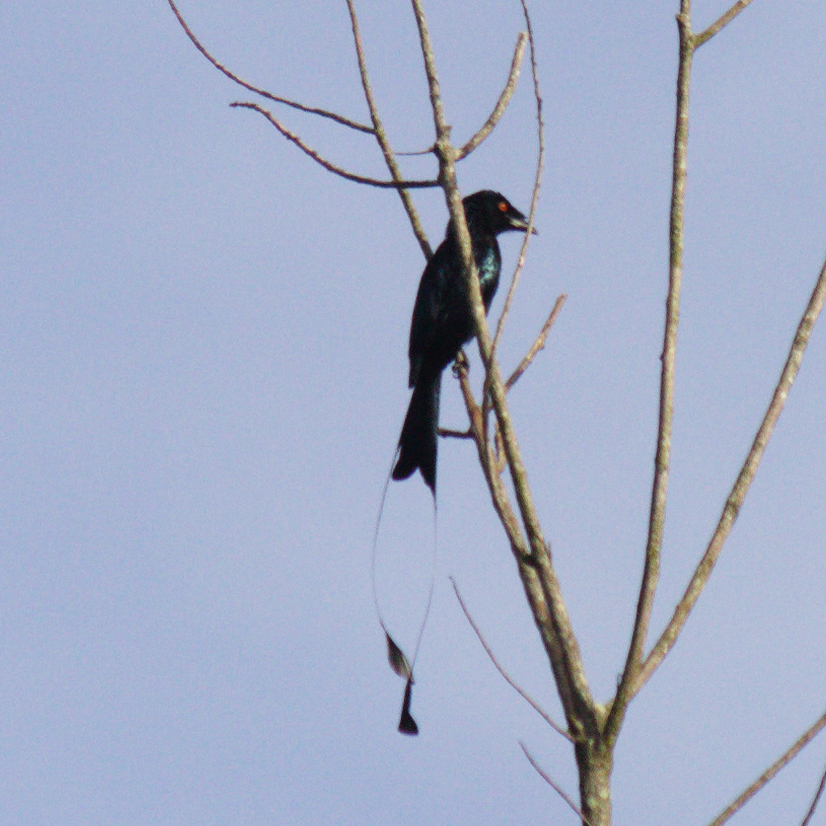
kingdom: Animalia
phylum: Chordata
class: Aves
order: Passeriformes
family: Dicruridae
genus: Dicrurus
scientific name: Dicrurus paradiseus
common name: Greater racket-tailed drongo
